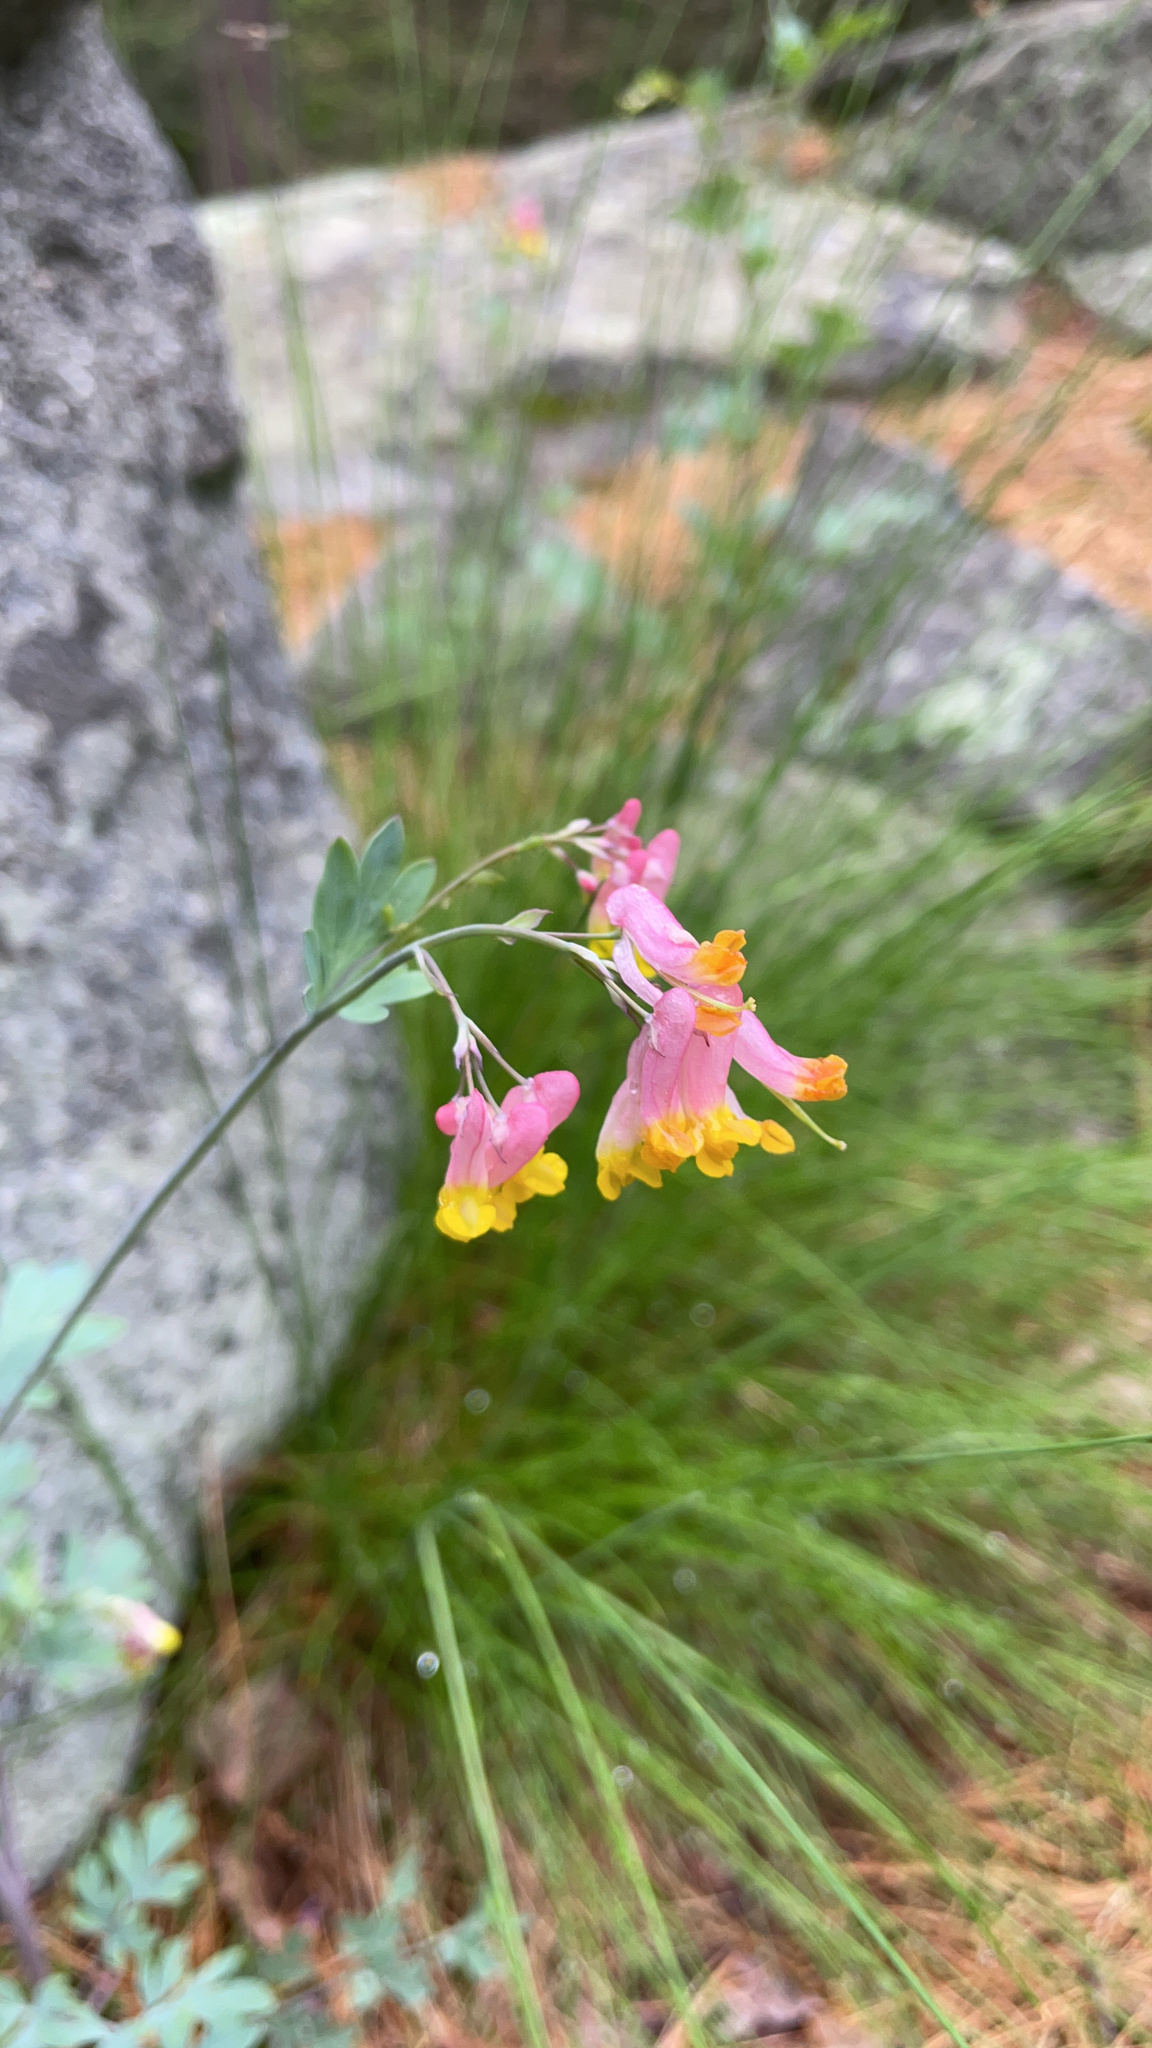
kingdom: Plantae
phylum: Tracheophyta
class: Magnoliopsida
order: Ranunculales
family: Papaveraceae
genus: Capnoides
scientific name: Capnoides sempervirens
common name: Rock harlequin
